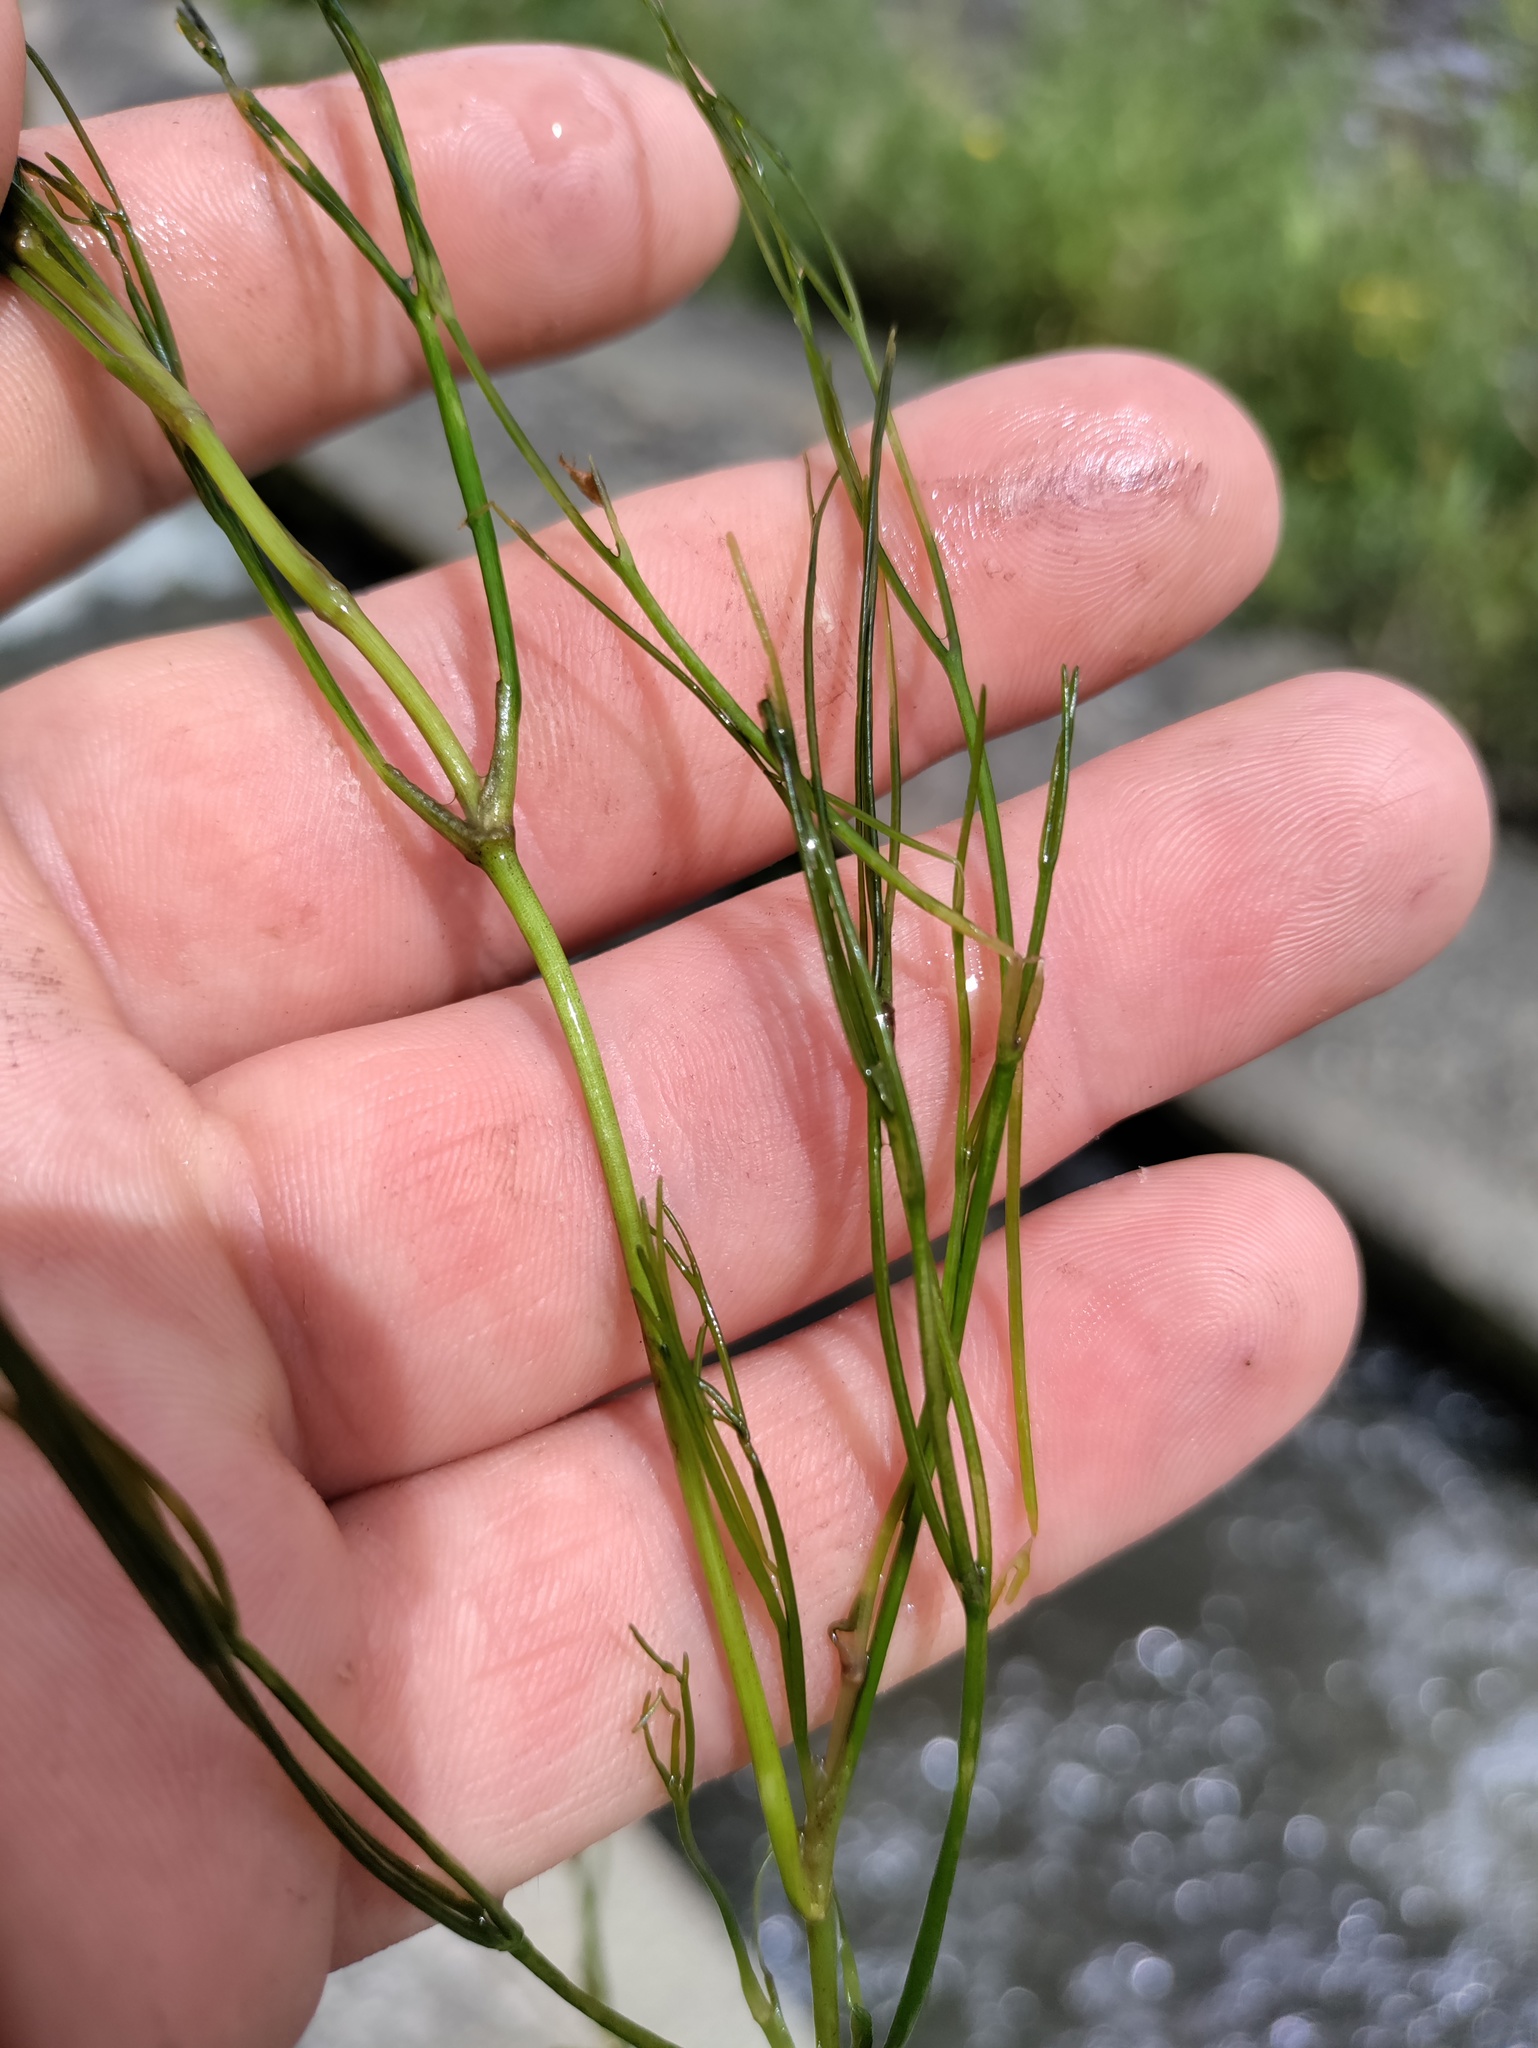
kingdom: Plantae
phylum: Tracheophyta
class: Magnoliopsida
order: Ranunculales
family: Ranunculaceae
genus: Ranunculus
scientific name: Ranunculus fluitans
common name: River water-crowfoot
